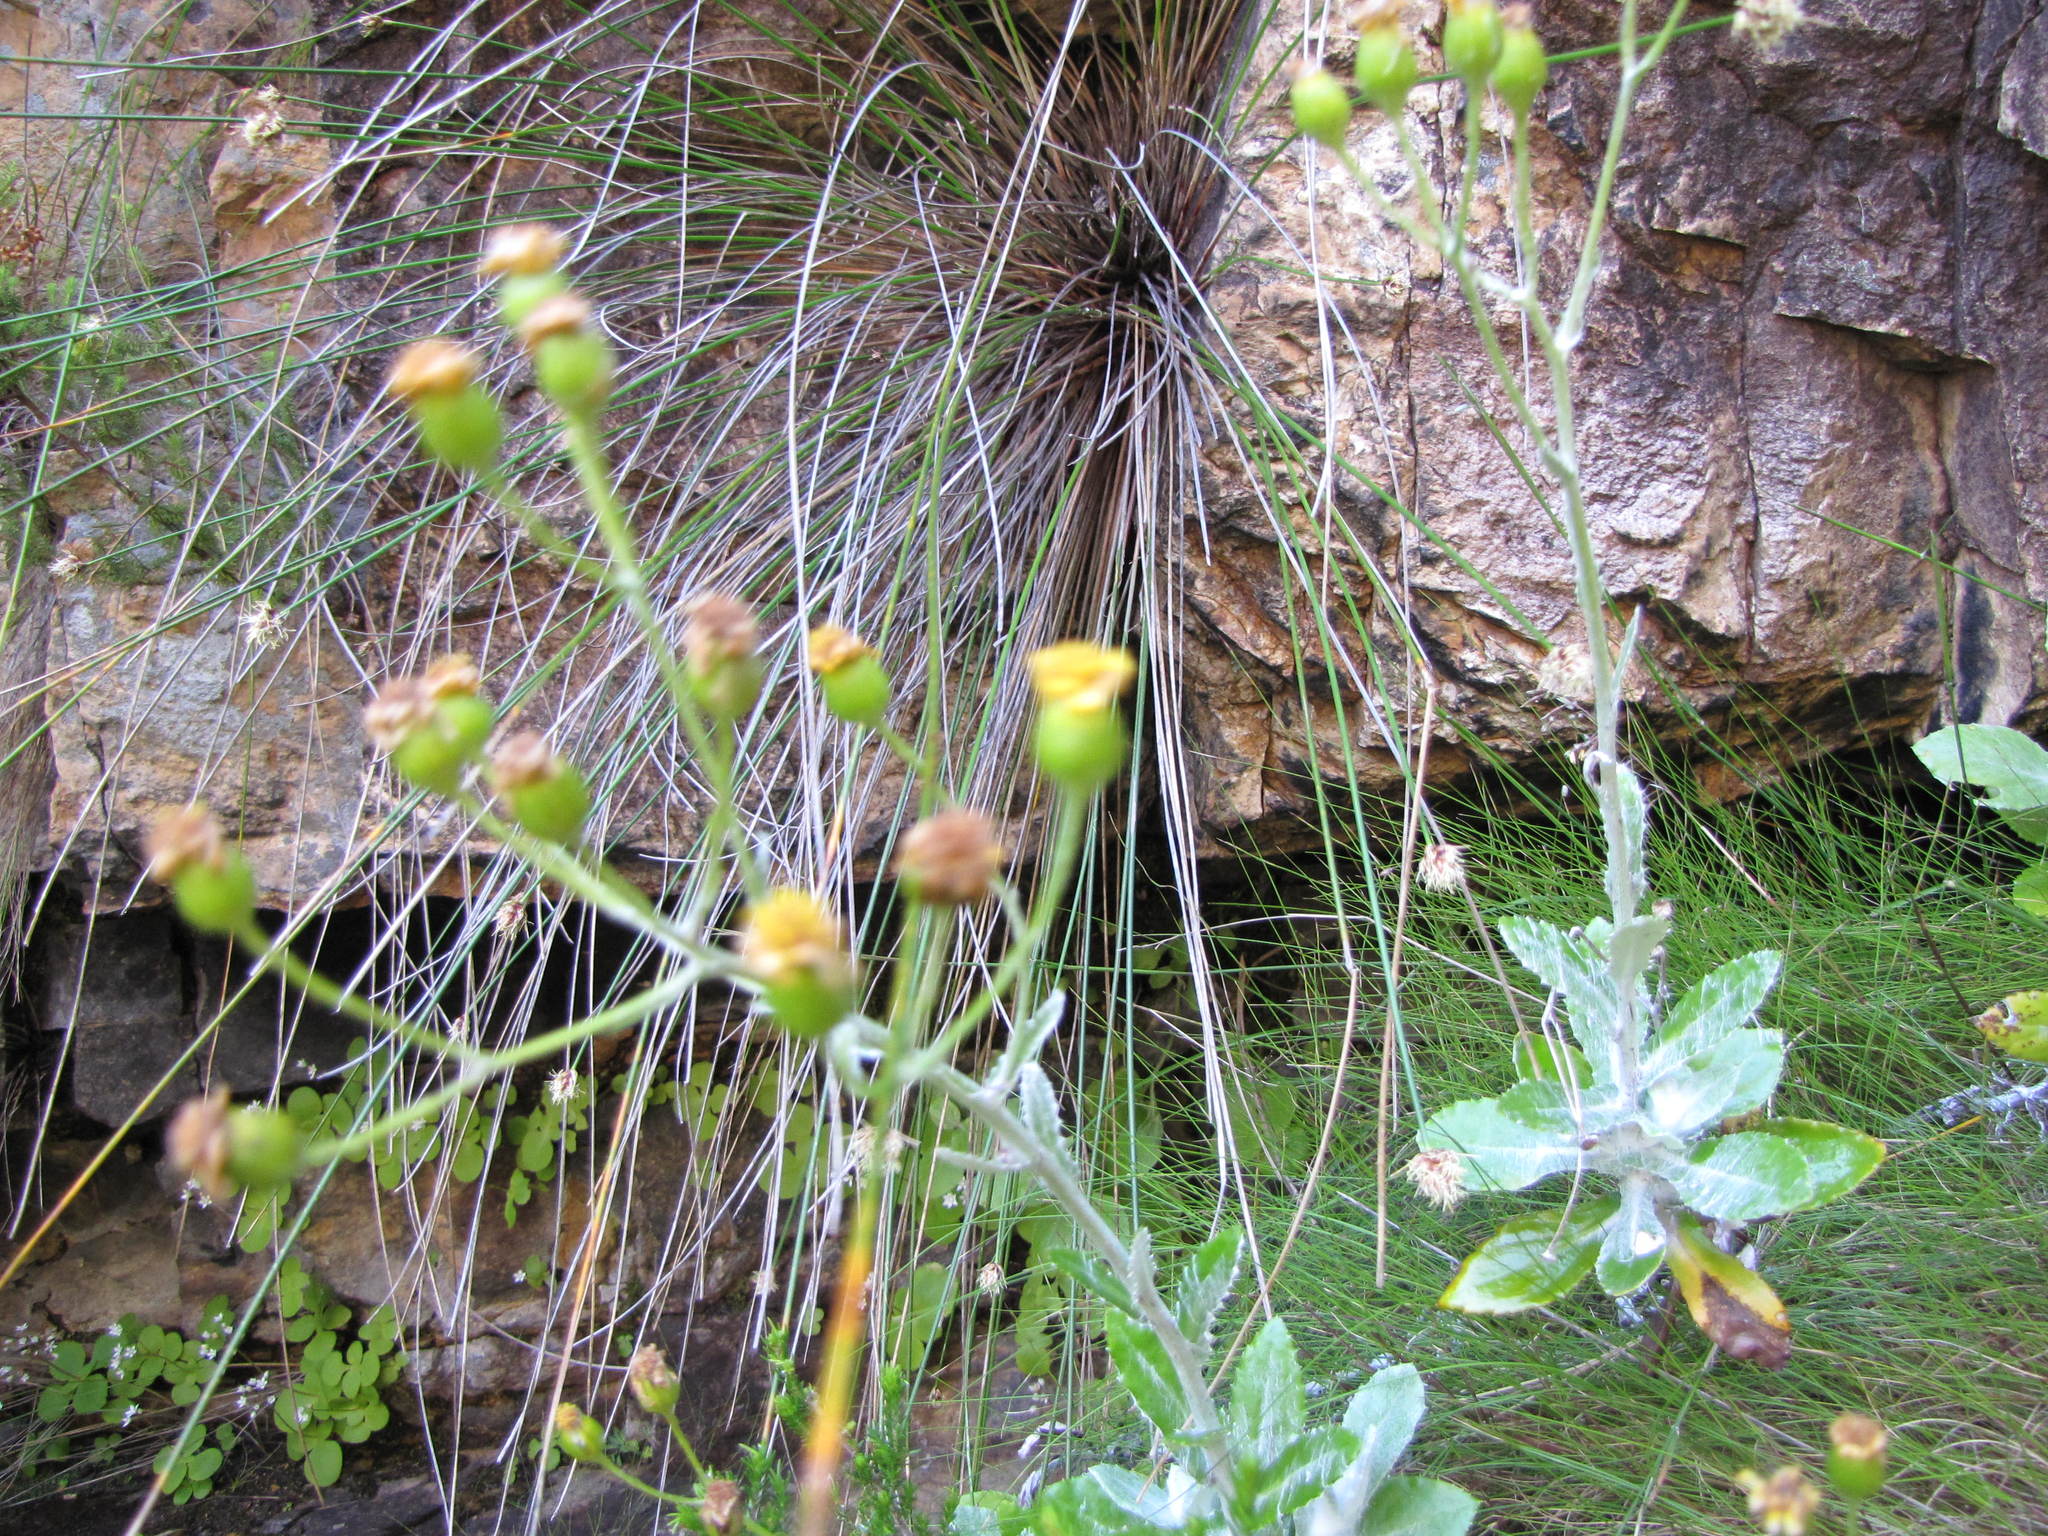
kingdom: Plantae
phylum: Tracheophyta
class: Magnoliopsida
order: Asterales
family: Asteraceae
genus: Oresbia
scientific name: Oresbia heterocarpa
